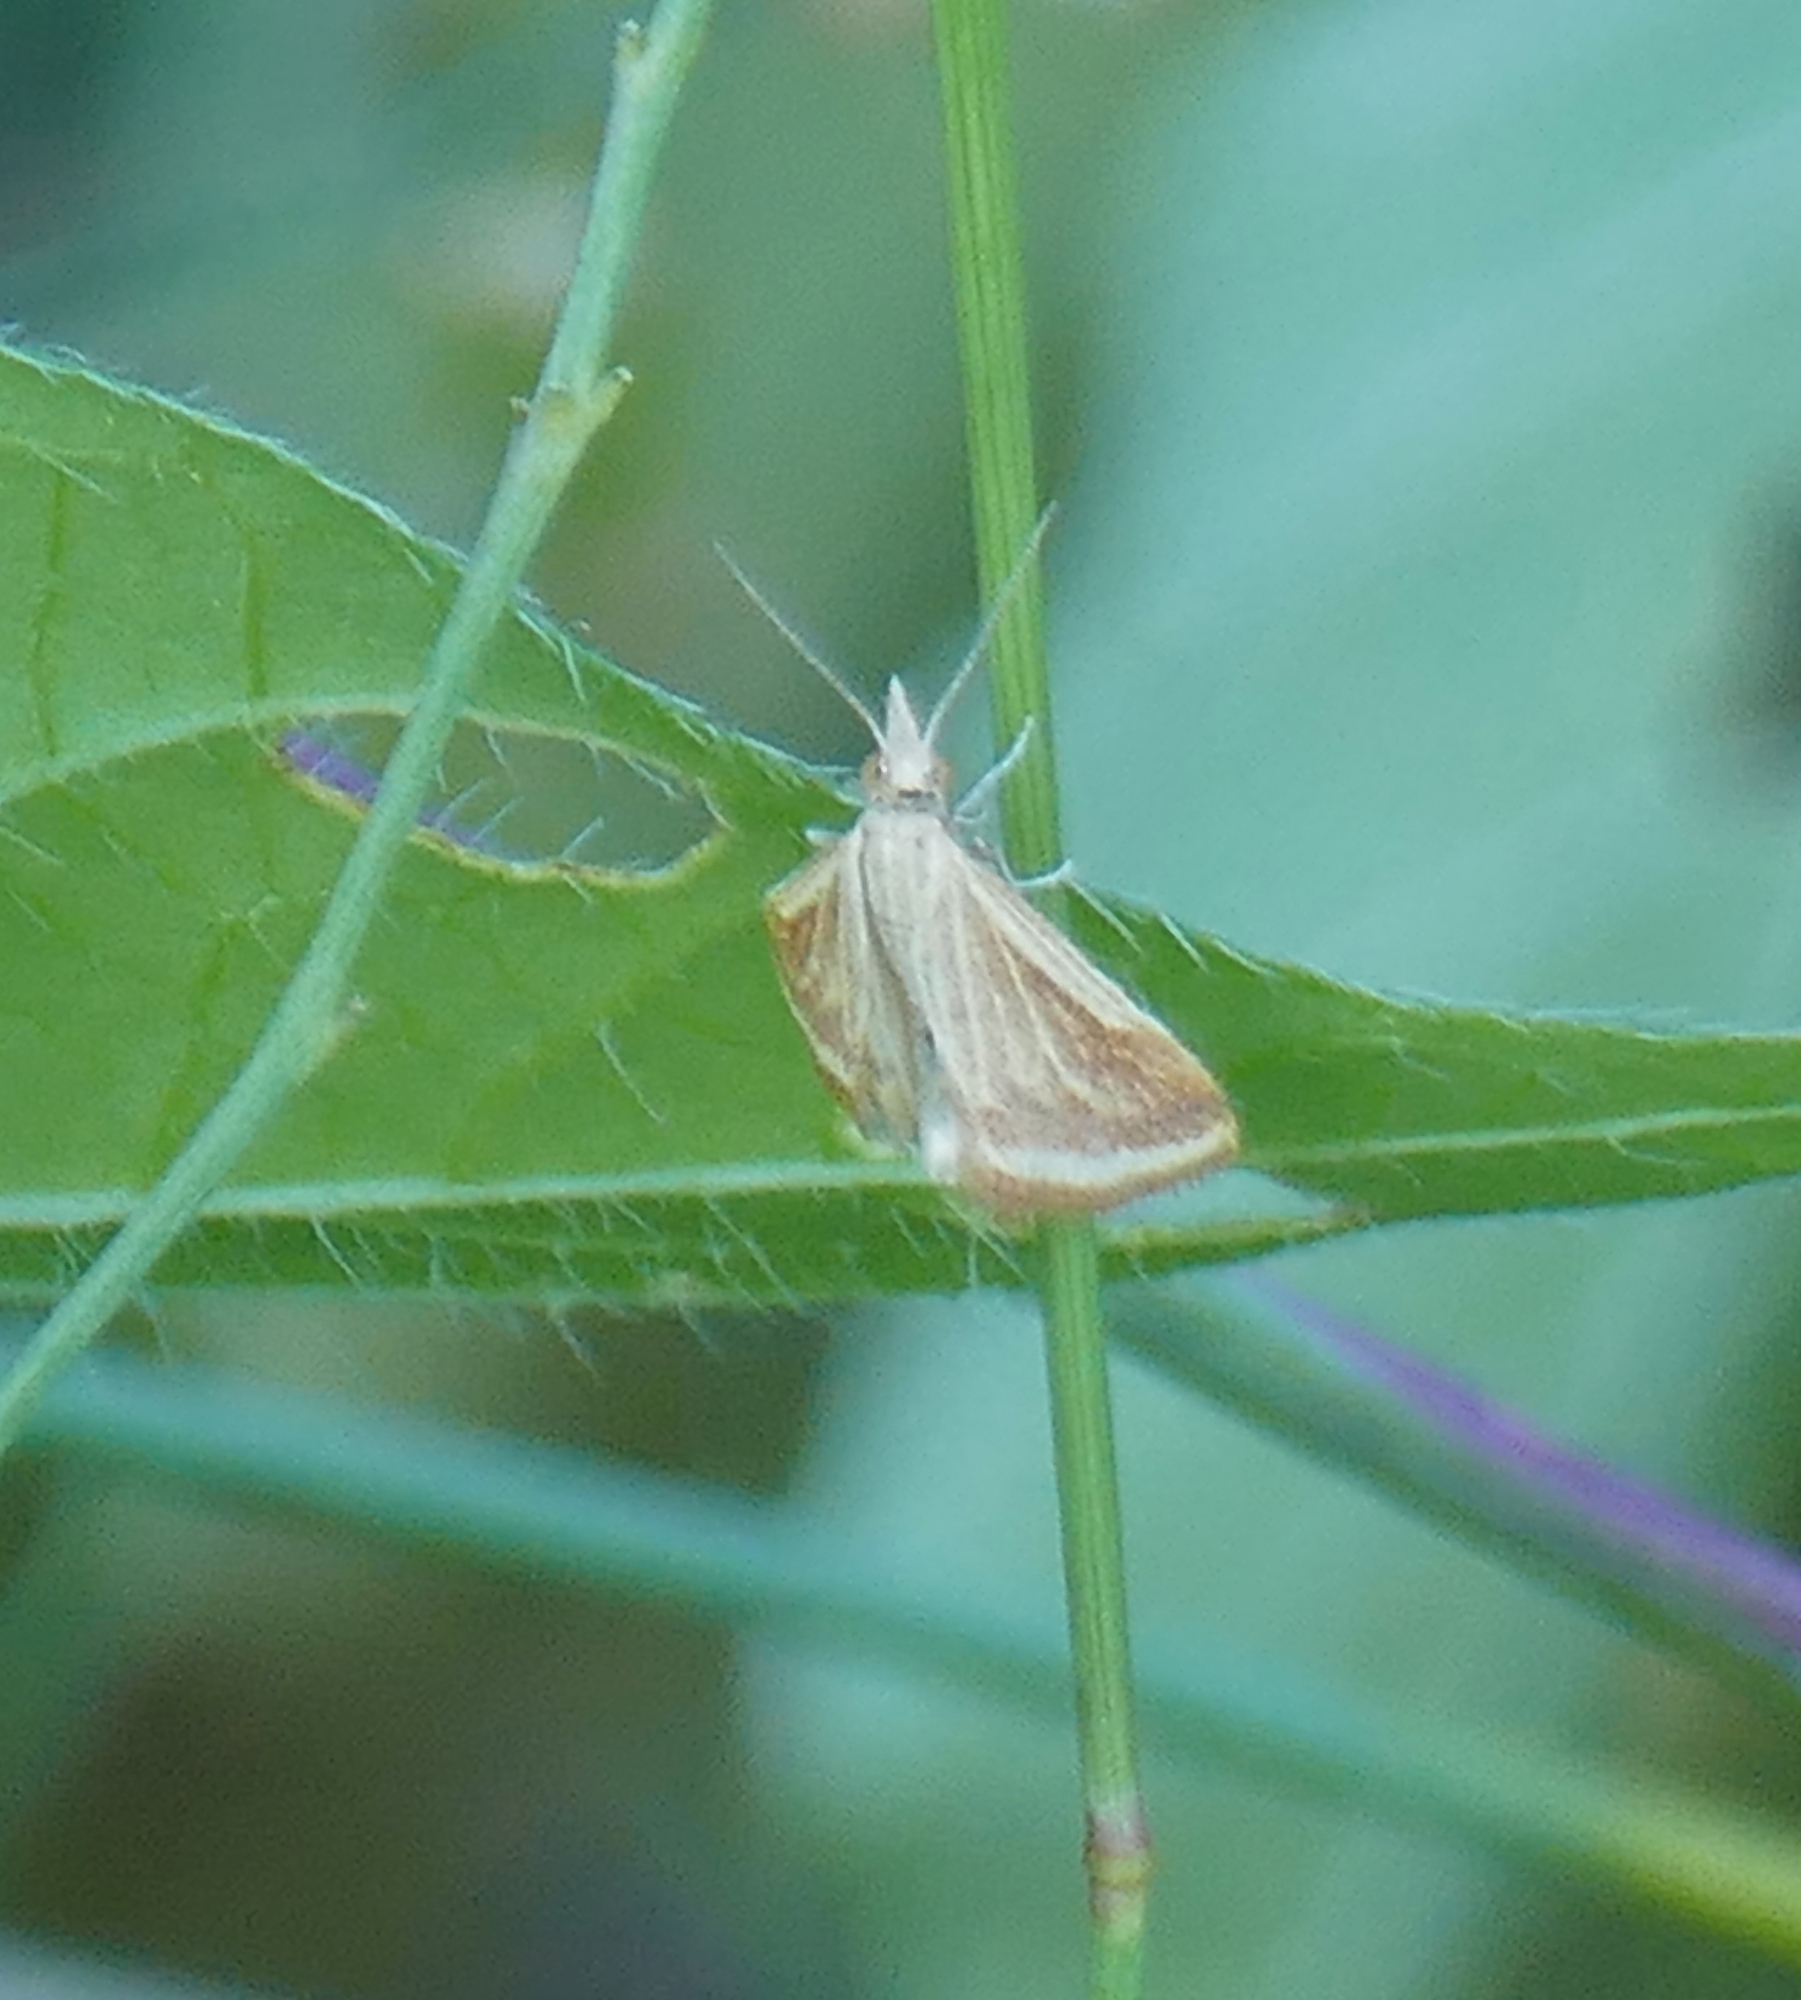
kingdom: Animalia
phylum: Arthropoda
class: Insecta
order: Lepidoptera
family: Crambidae
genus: Microtheoris
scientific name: Microtheoris ophionalis
